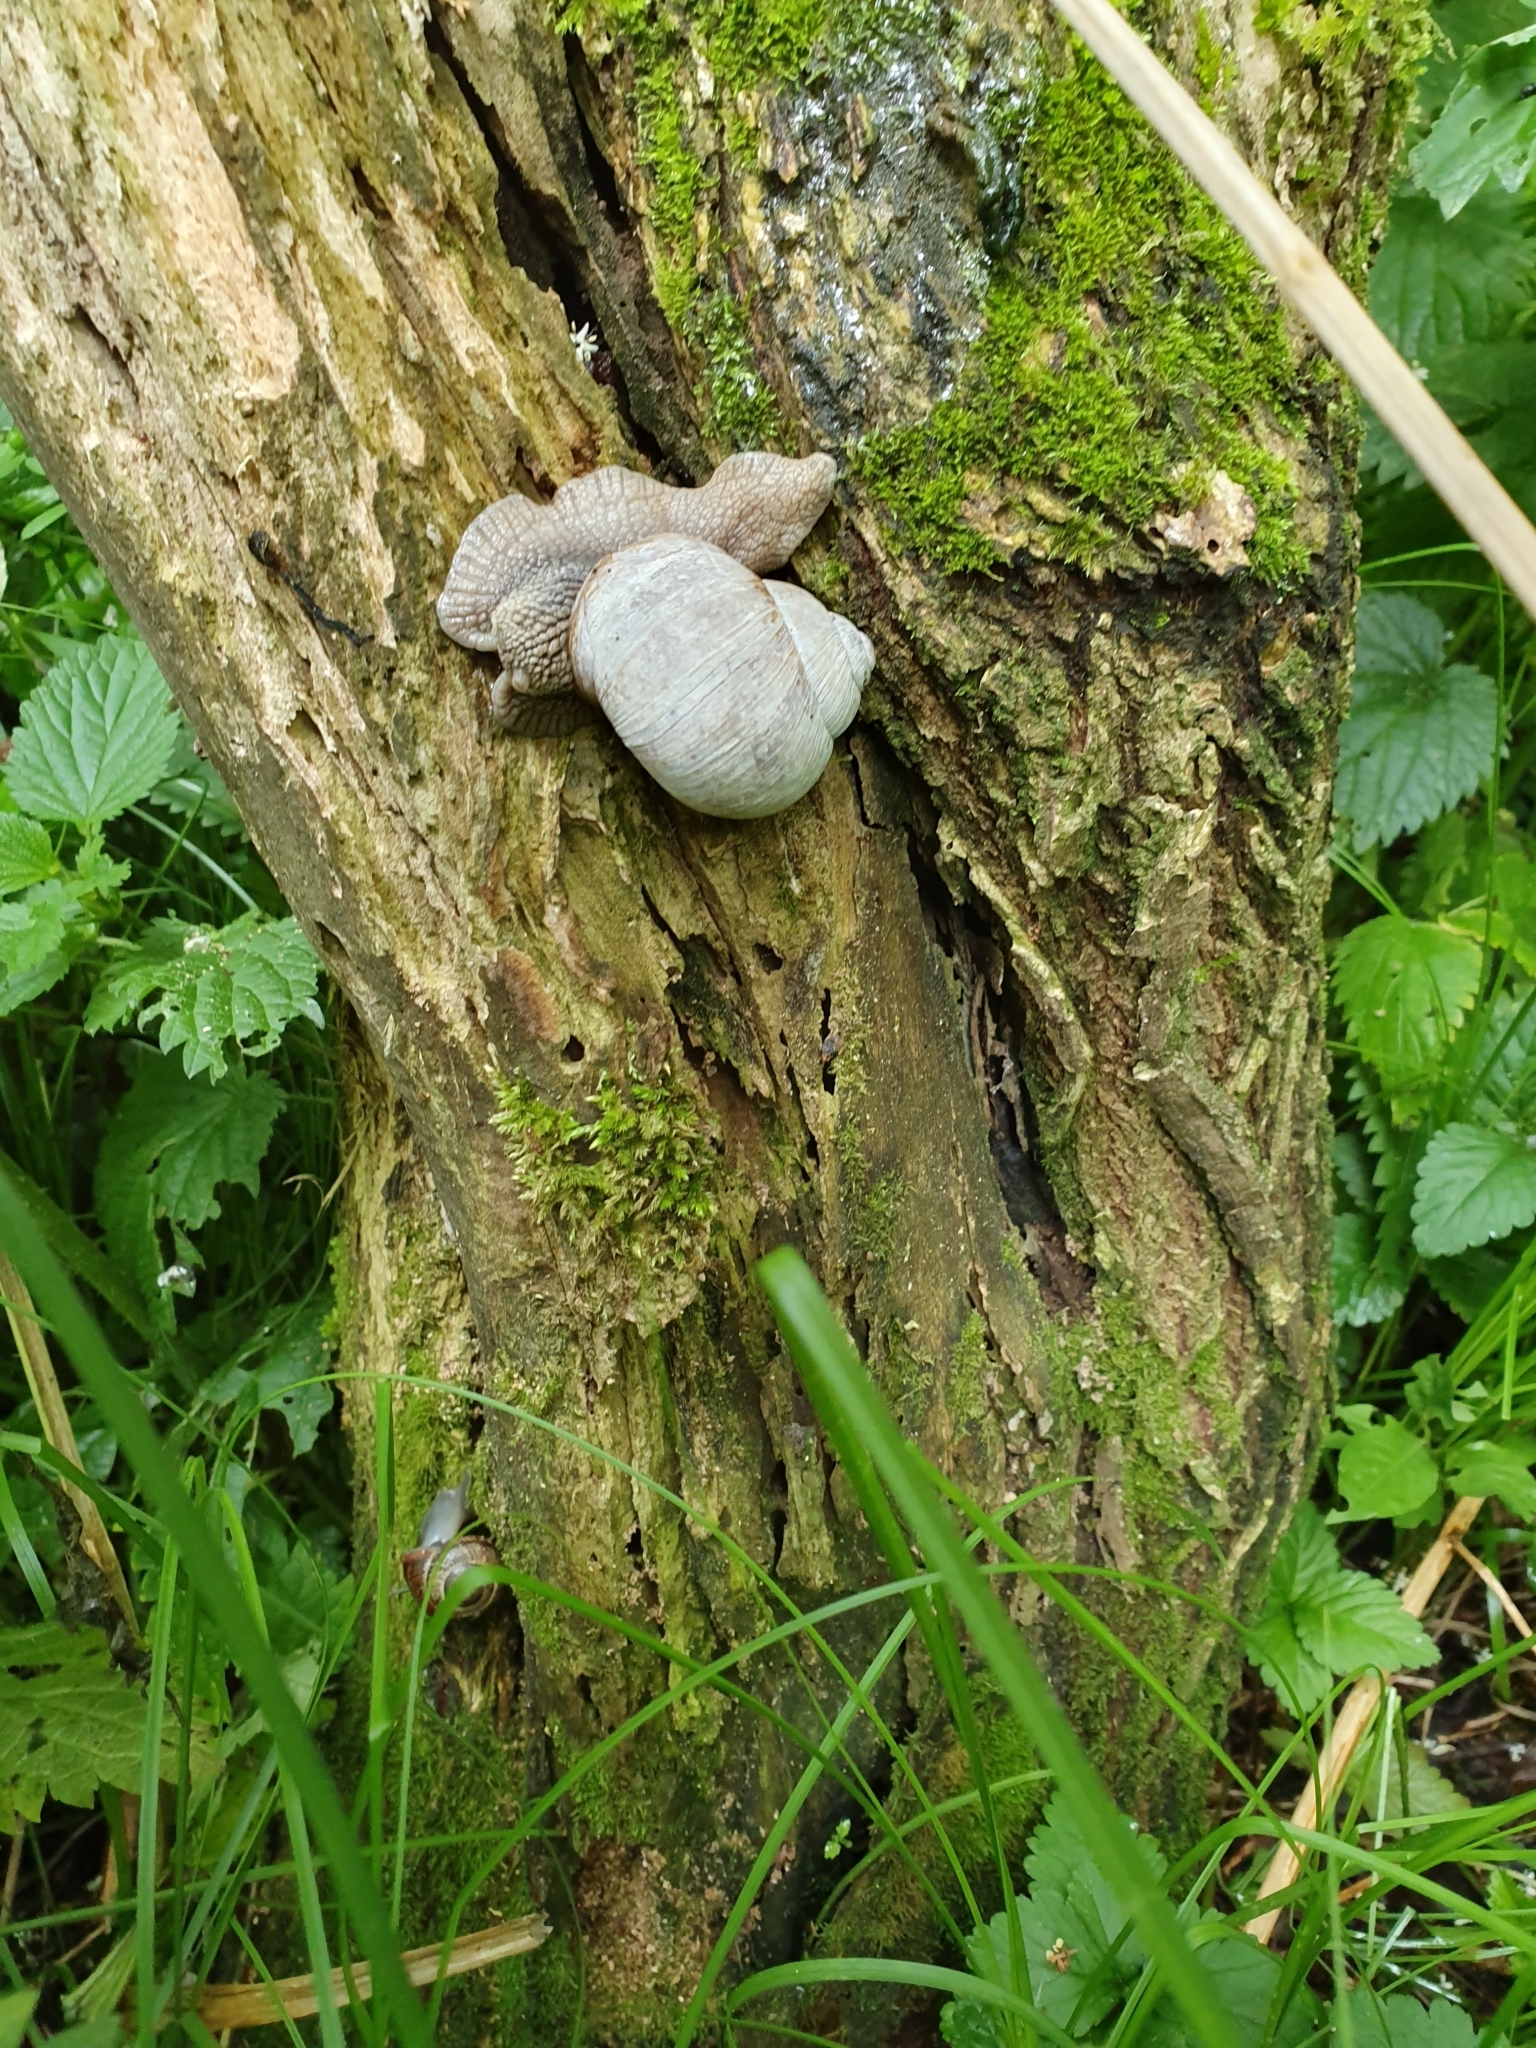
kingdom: Animalia
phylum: Mollusca
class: Gastropoda
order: Stylommatophora
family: Helicidae
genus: Helix
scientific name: Helix pomatia
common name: Roman snail
